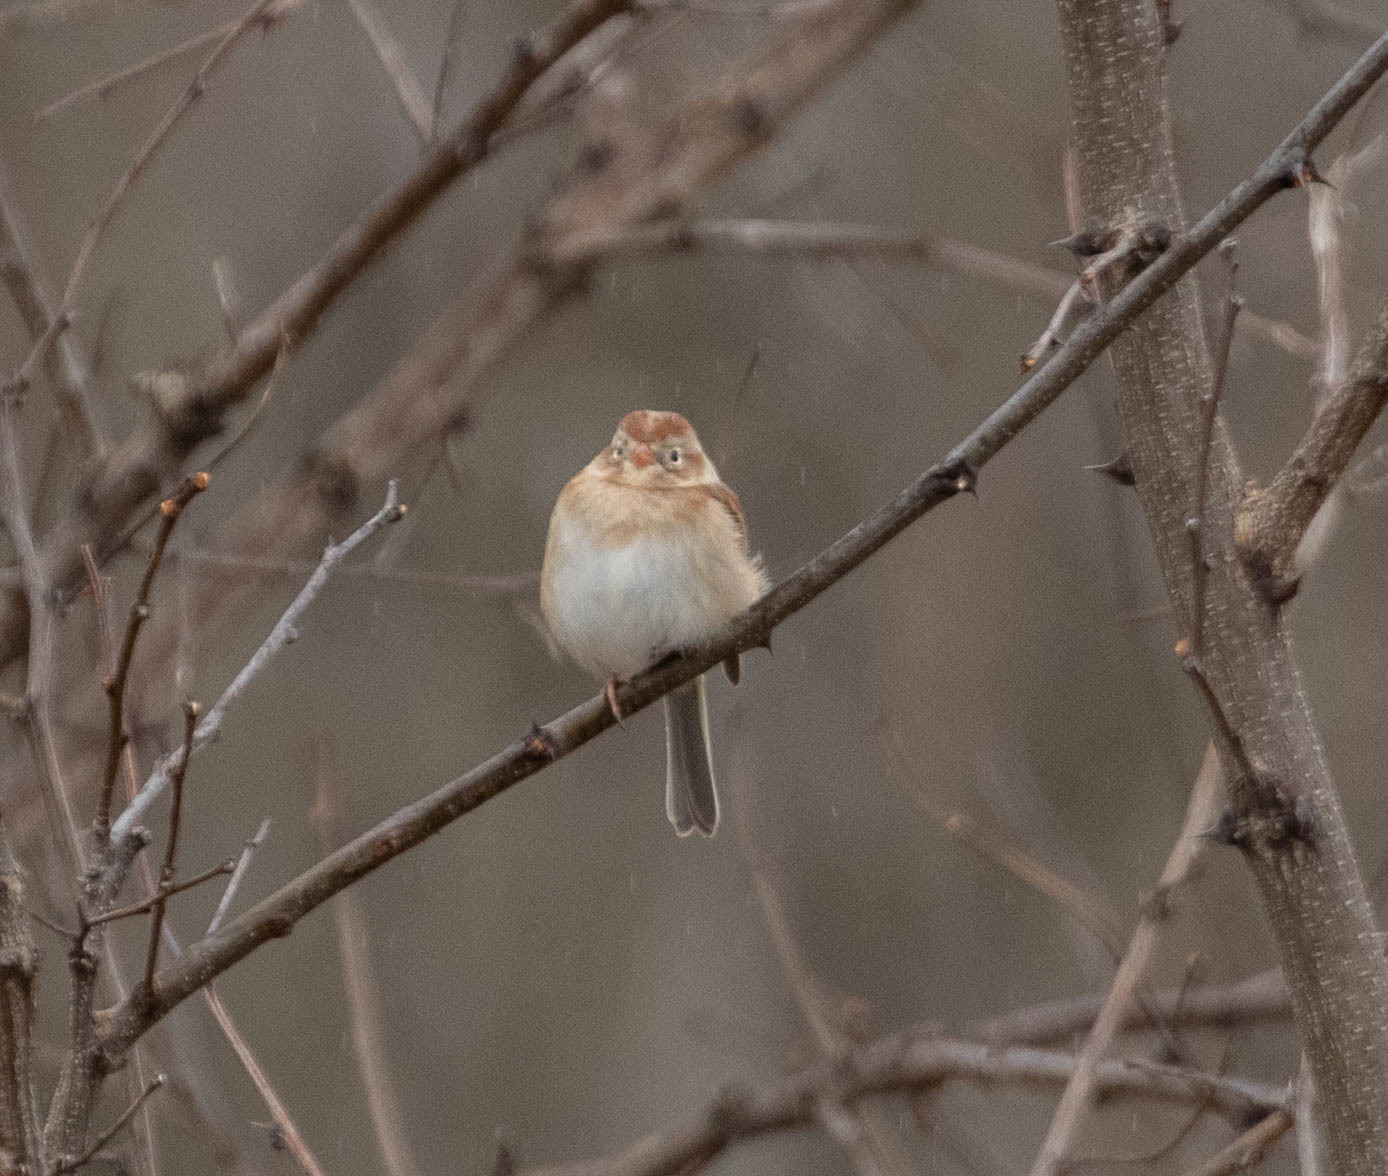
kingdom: Animalia
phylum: Chordata
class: Aves
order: Passeriformes
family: Passerellidae
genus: Spizella
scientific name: Spizella pusilla
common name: Field sparrow
